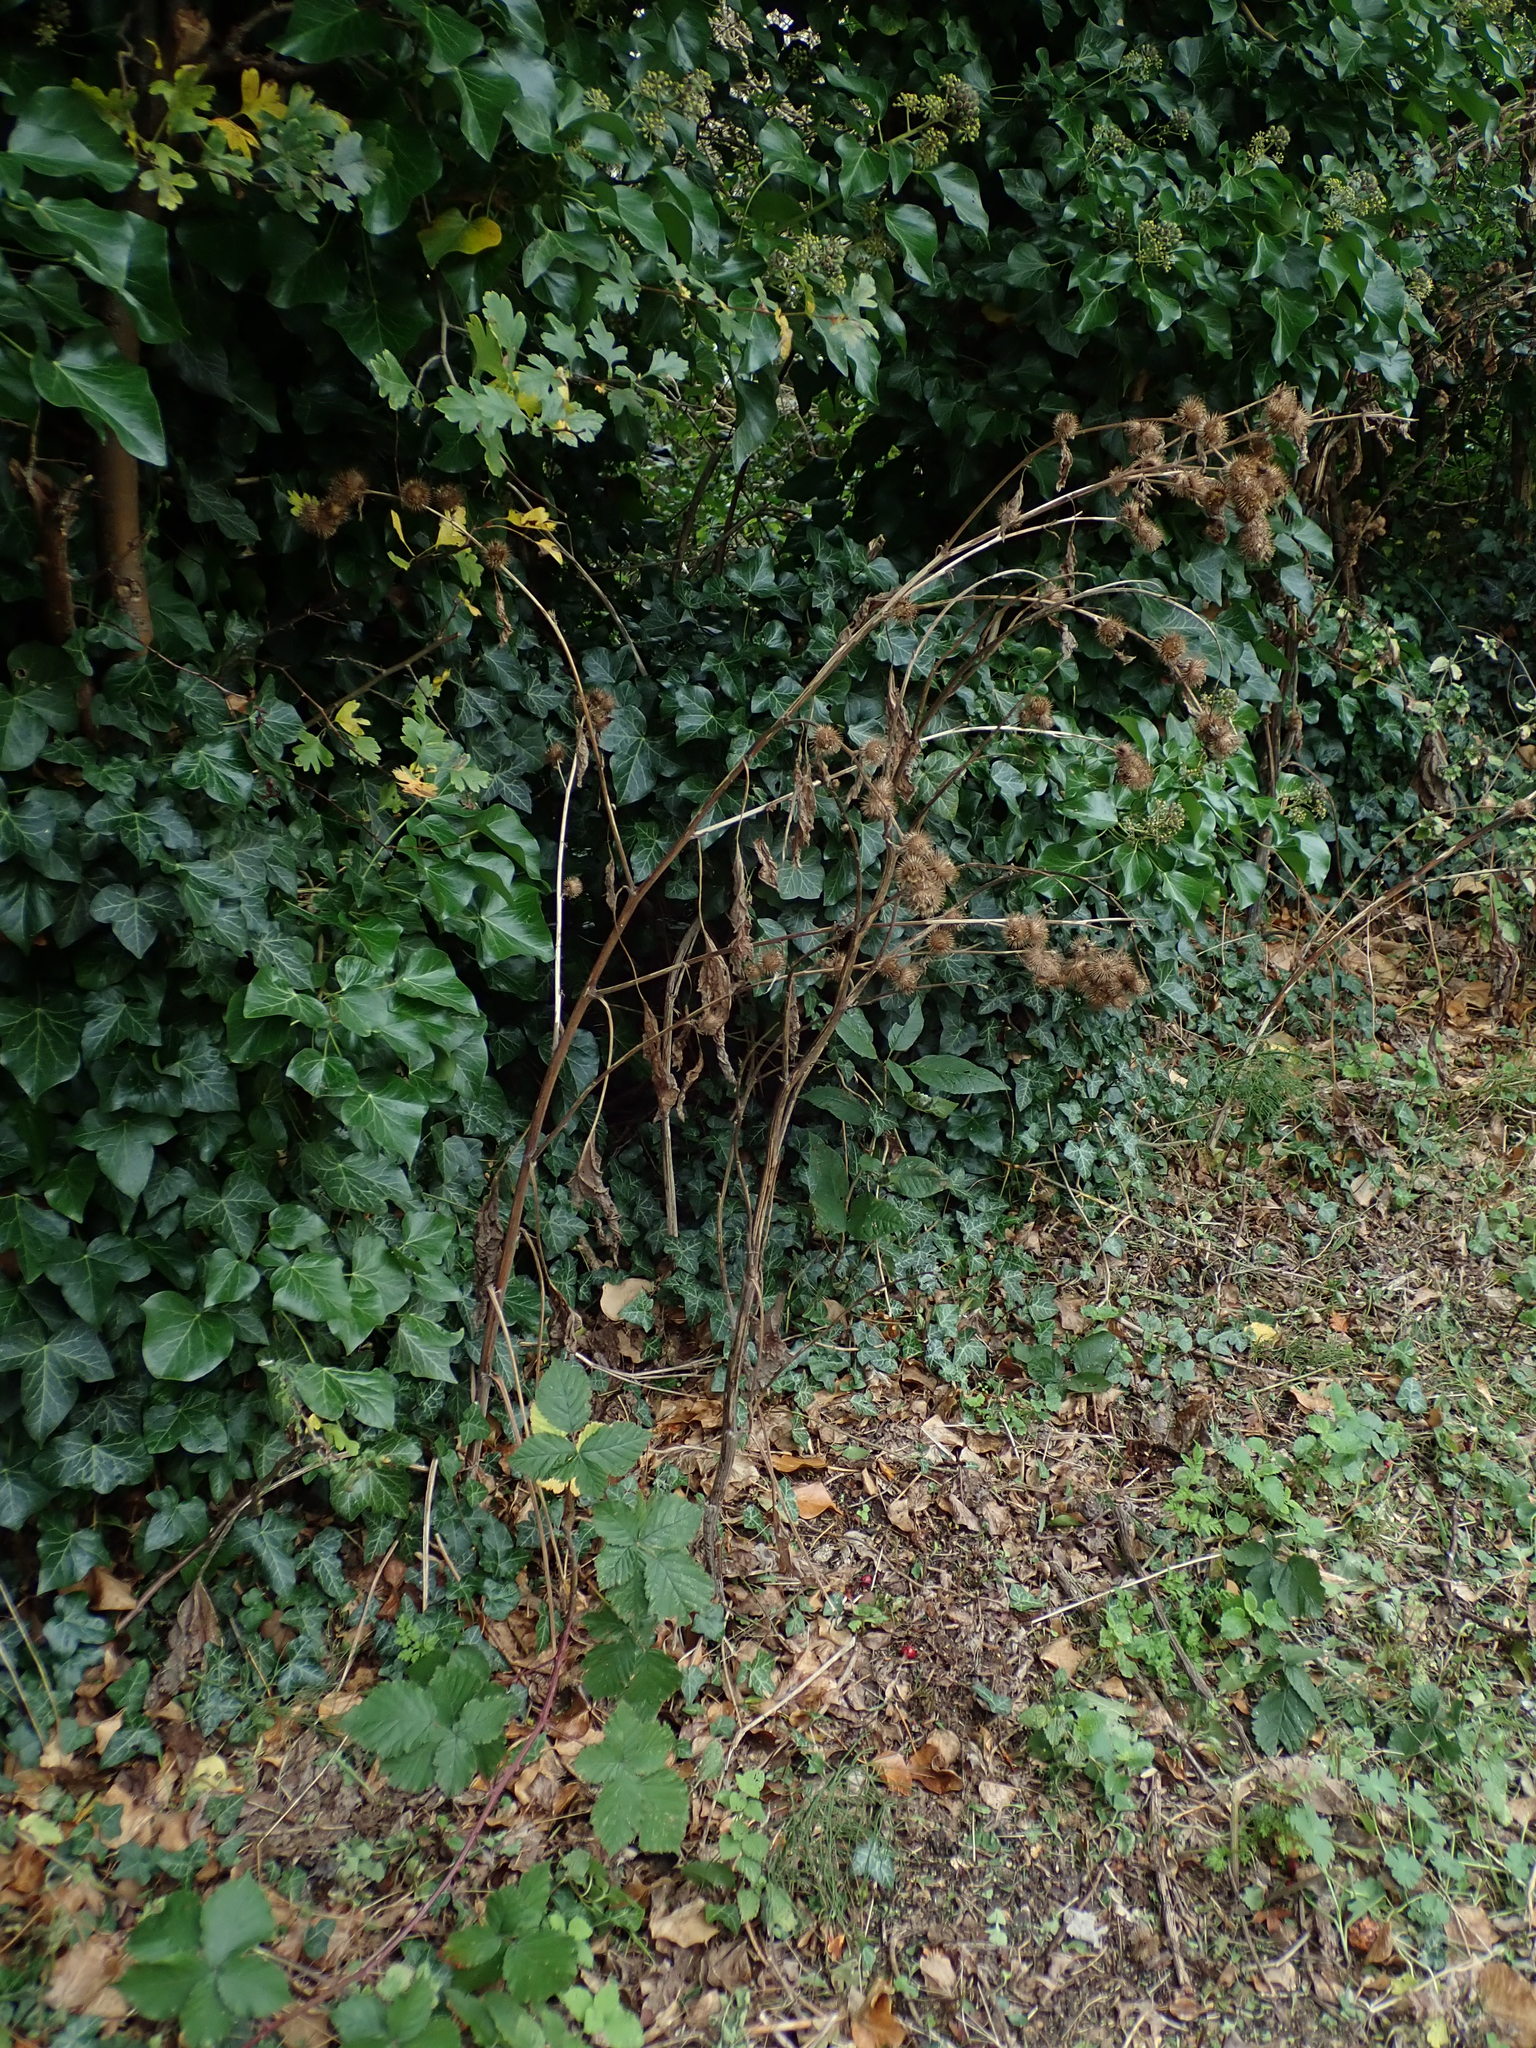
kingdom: Plantae
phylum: Tracheophyta
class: Magnoliopsida
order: Asterales
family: Asteraceae
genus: Arctium
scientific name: Arctium lappa
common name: Greater burdock
